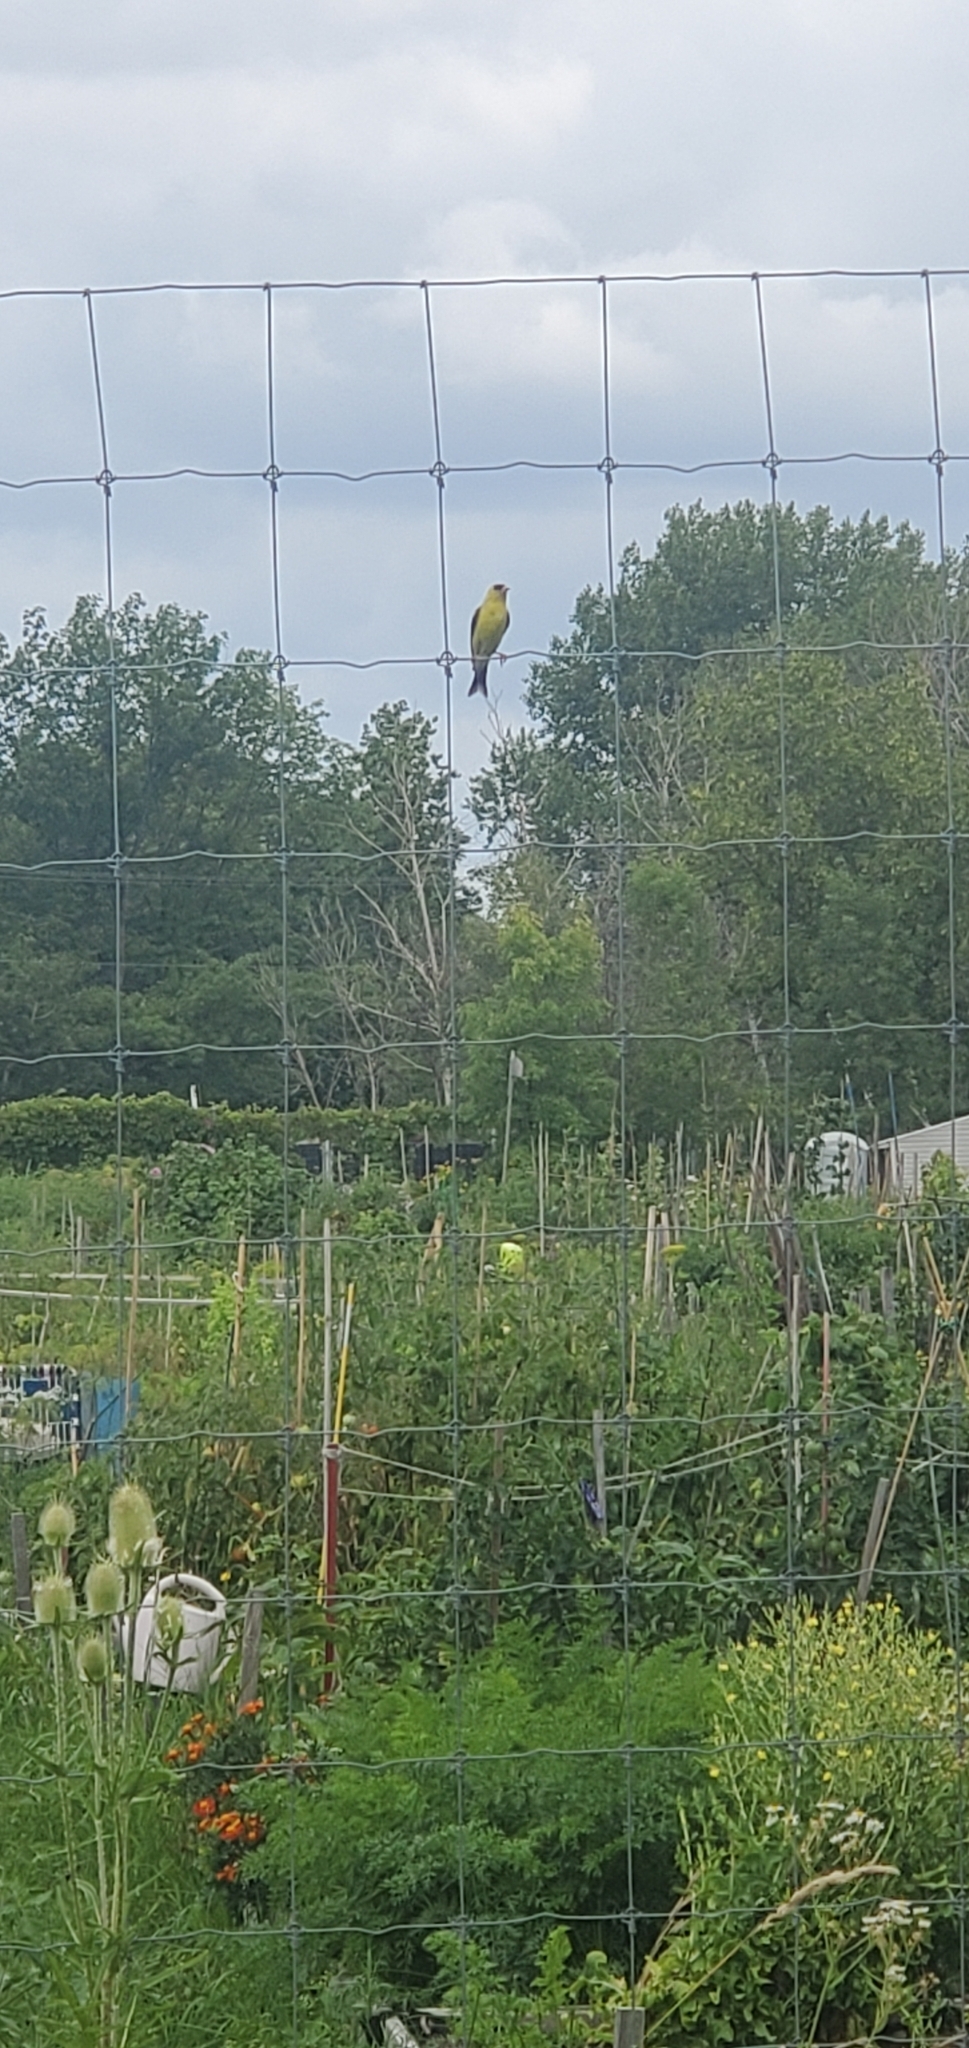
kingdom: Animalia
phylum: Chordata
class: Aves
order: Passeriformes
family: Fringillidae
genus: Spinus
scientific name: Spinus tristis
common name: American goldfinch
